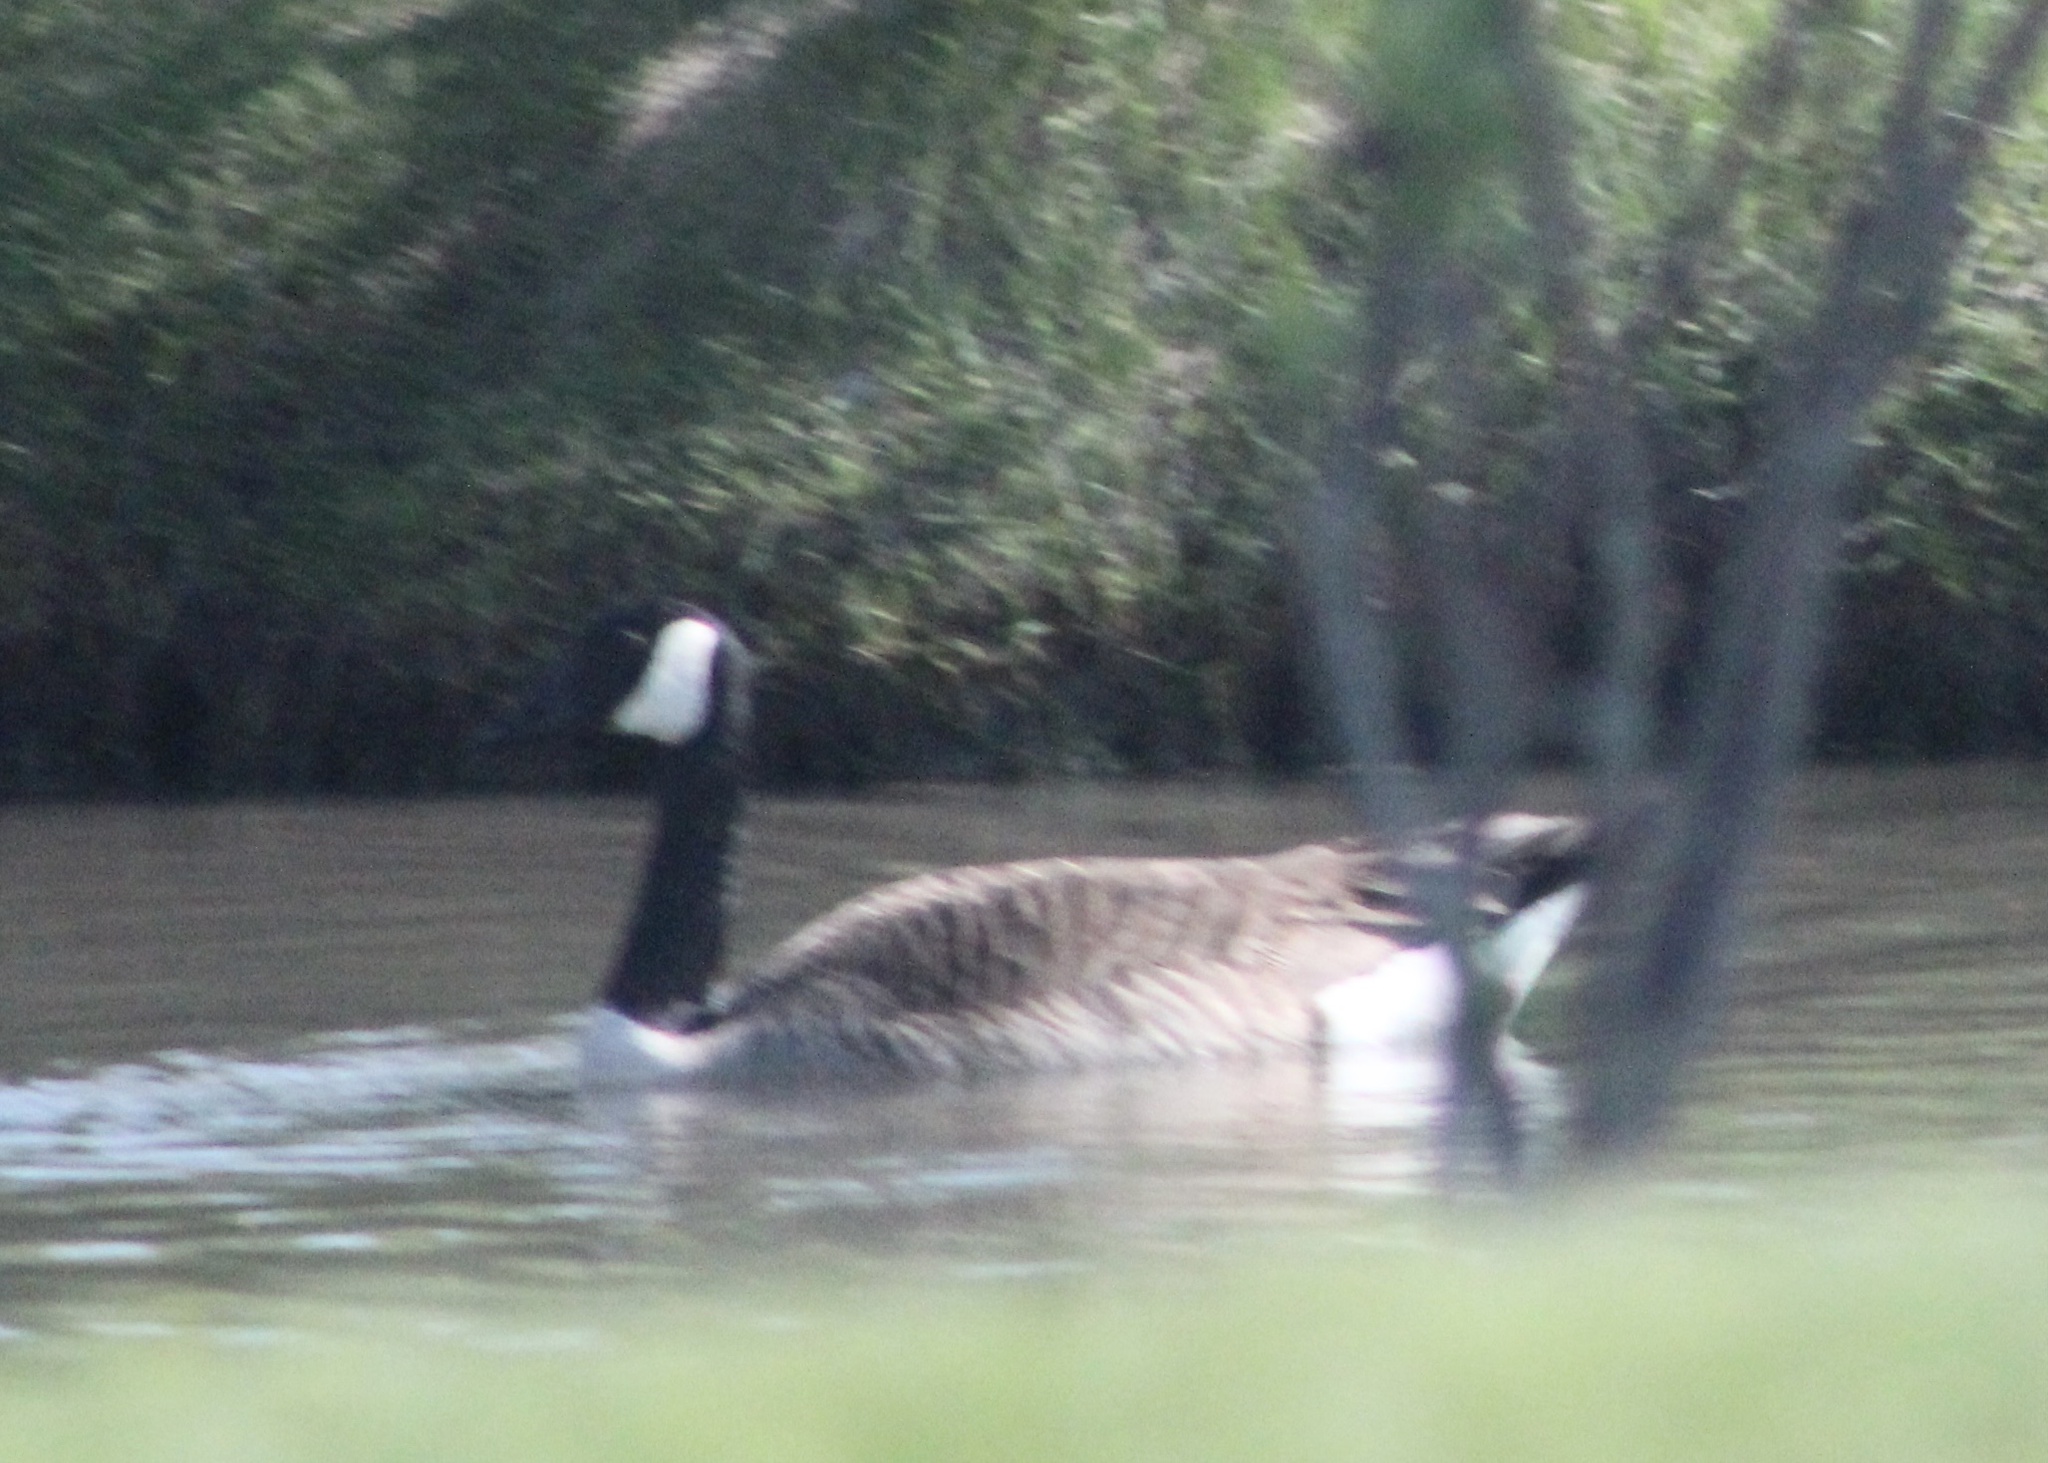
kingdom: Animalia
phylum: Chordata
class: Aves
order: Anseriformes
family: Anatidae
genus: Branta
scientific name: Branta canadensis
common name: Canada goose
